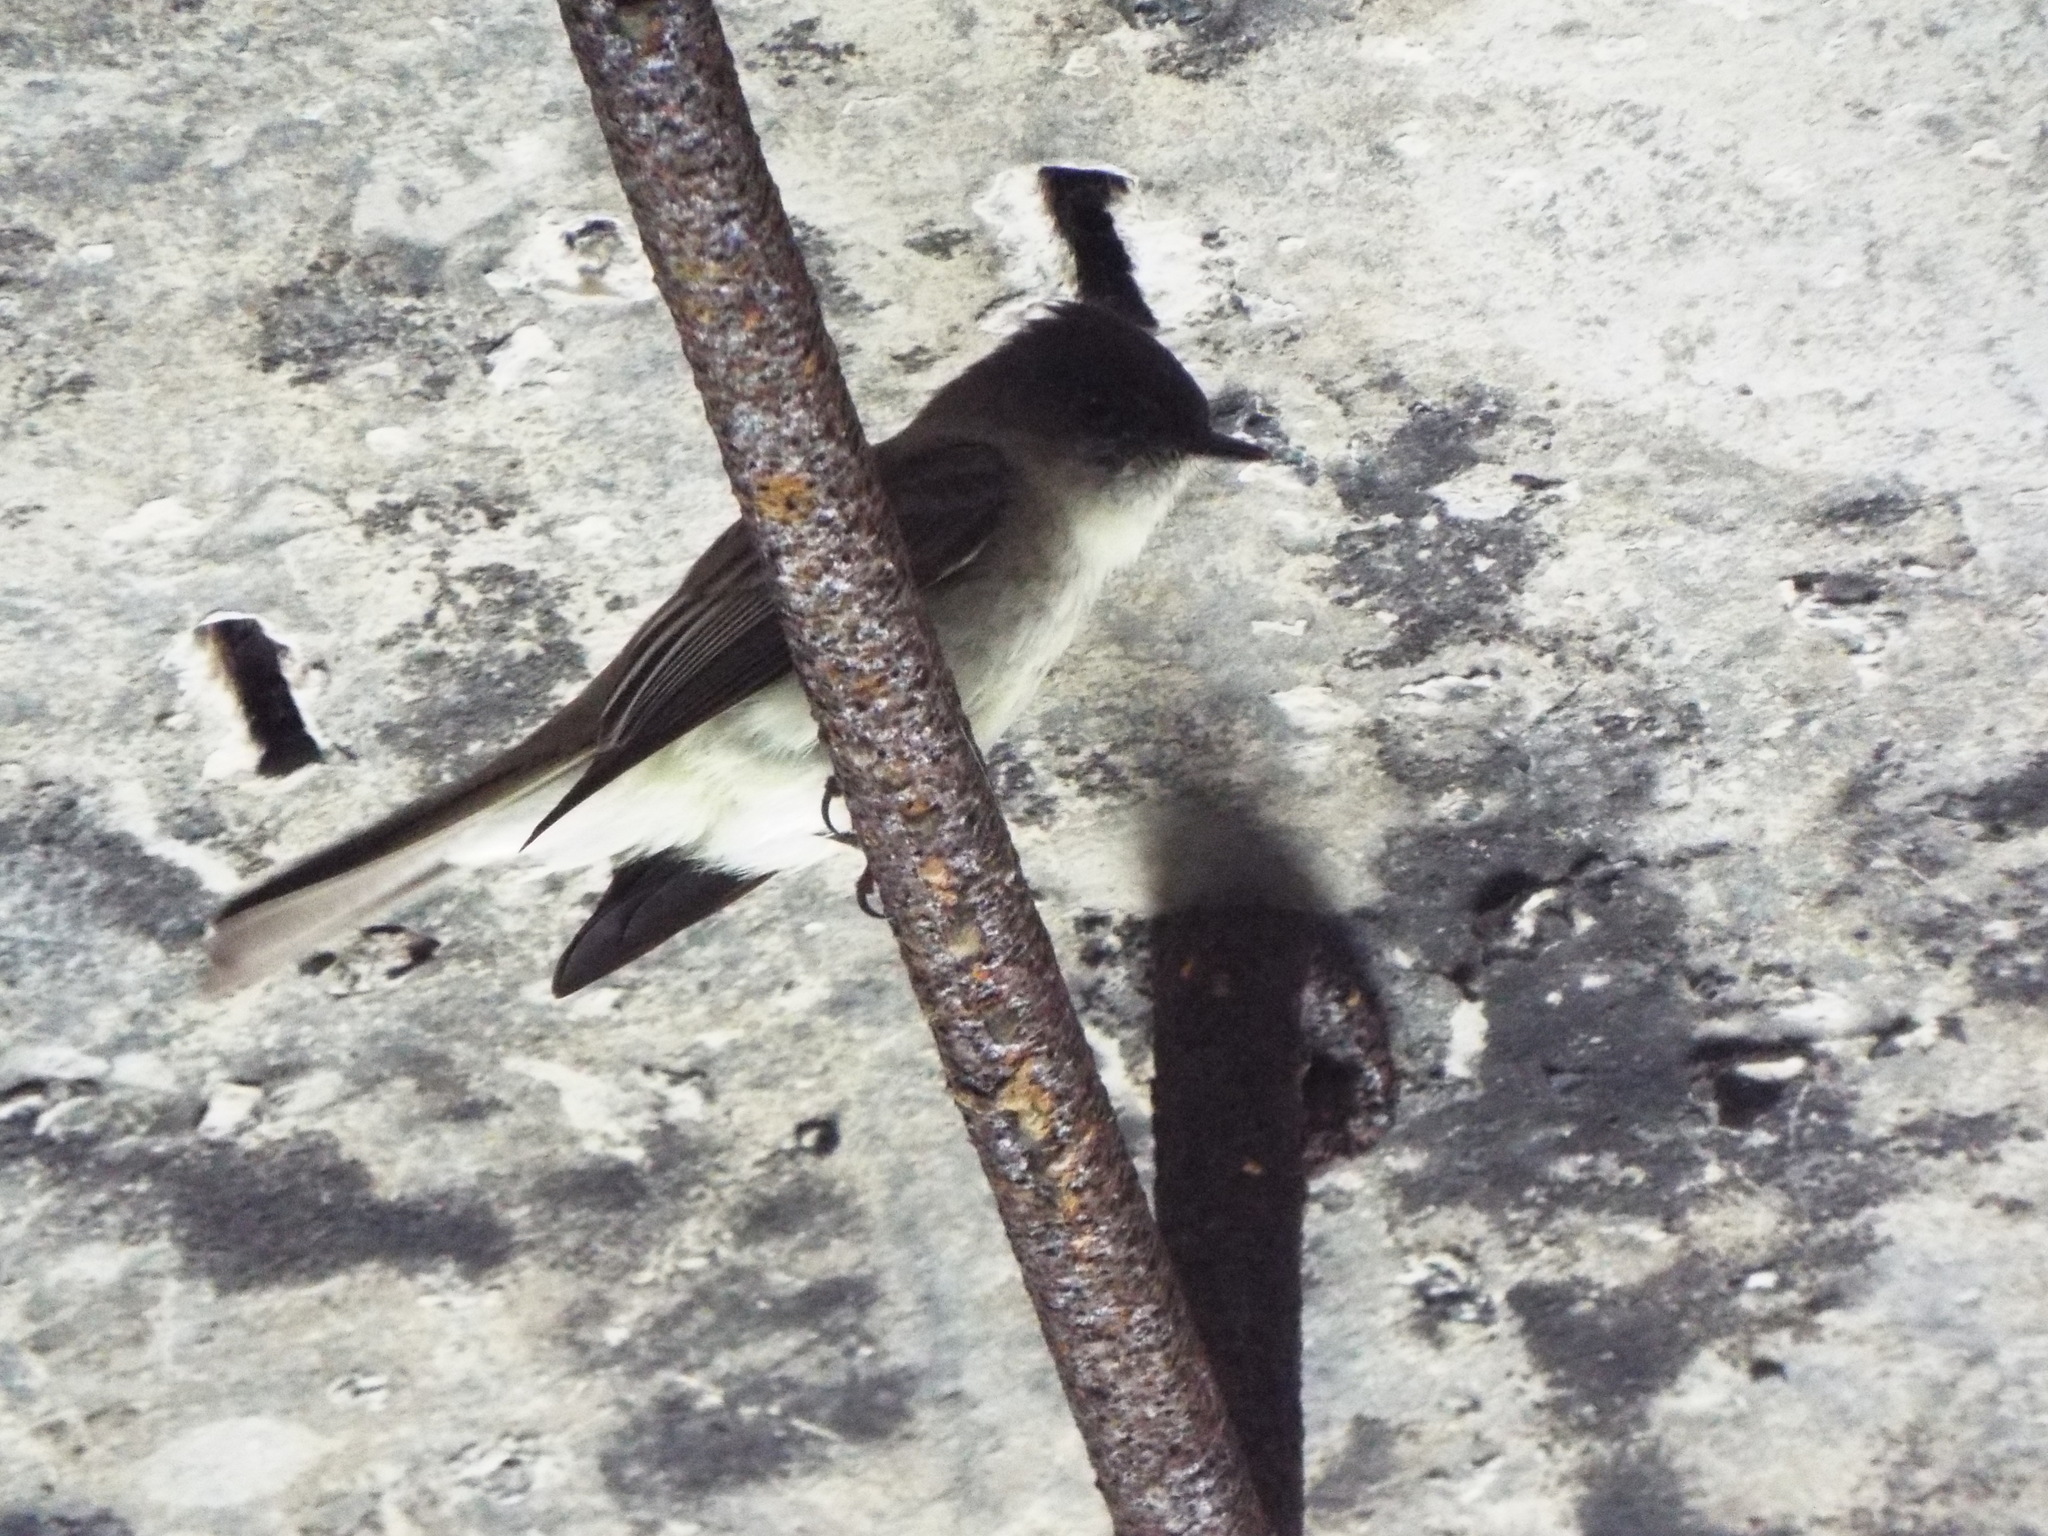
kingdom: Animalia
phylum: Chordata
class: Aves
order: Passeriformes
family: Tyrannidae
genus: Sayornis
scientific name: Sayornis phoebe
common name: Eastern phoebe
